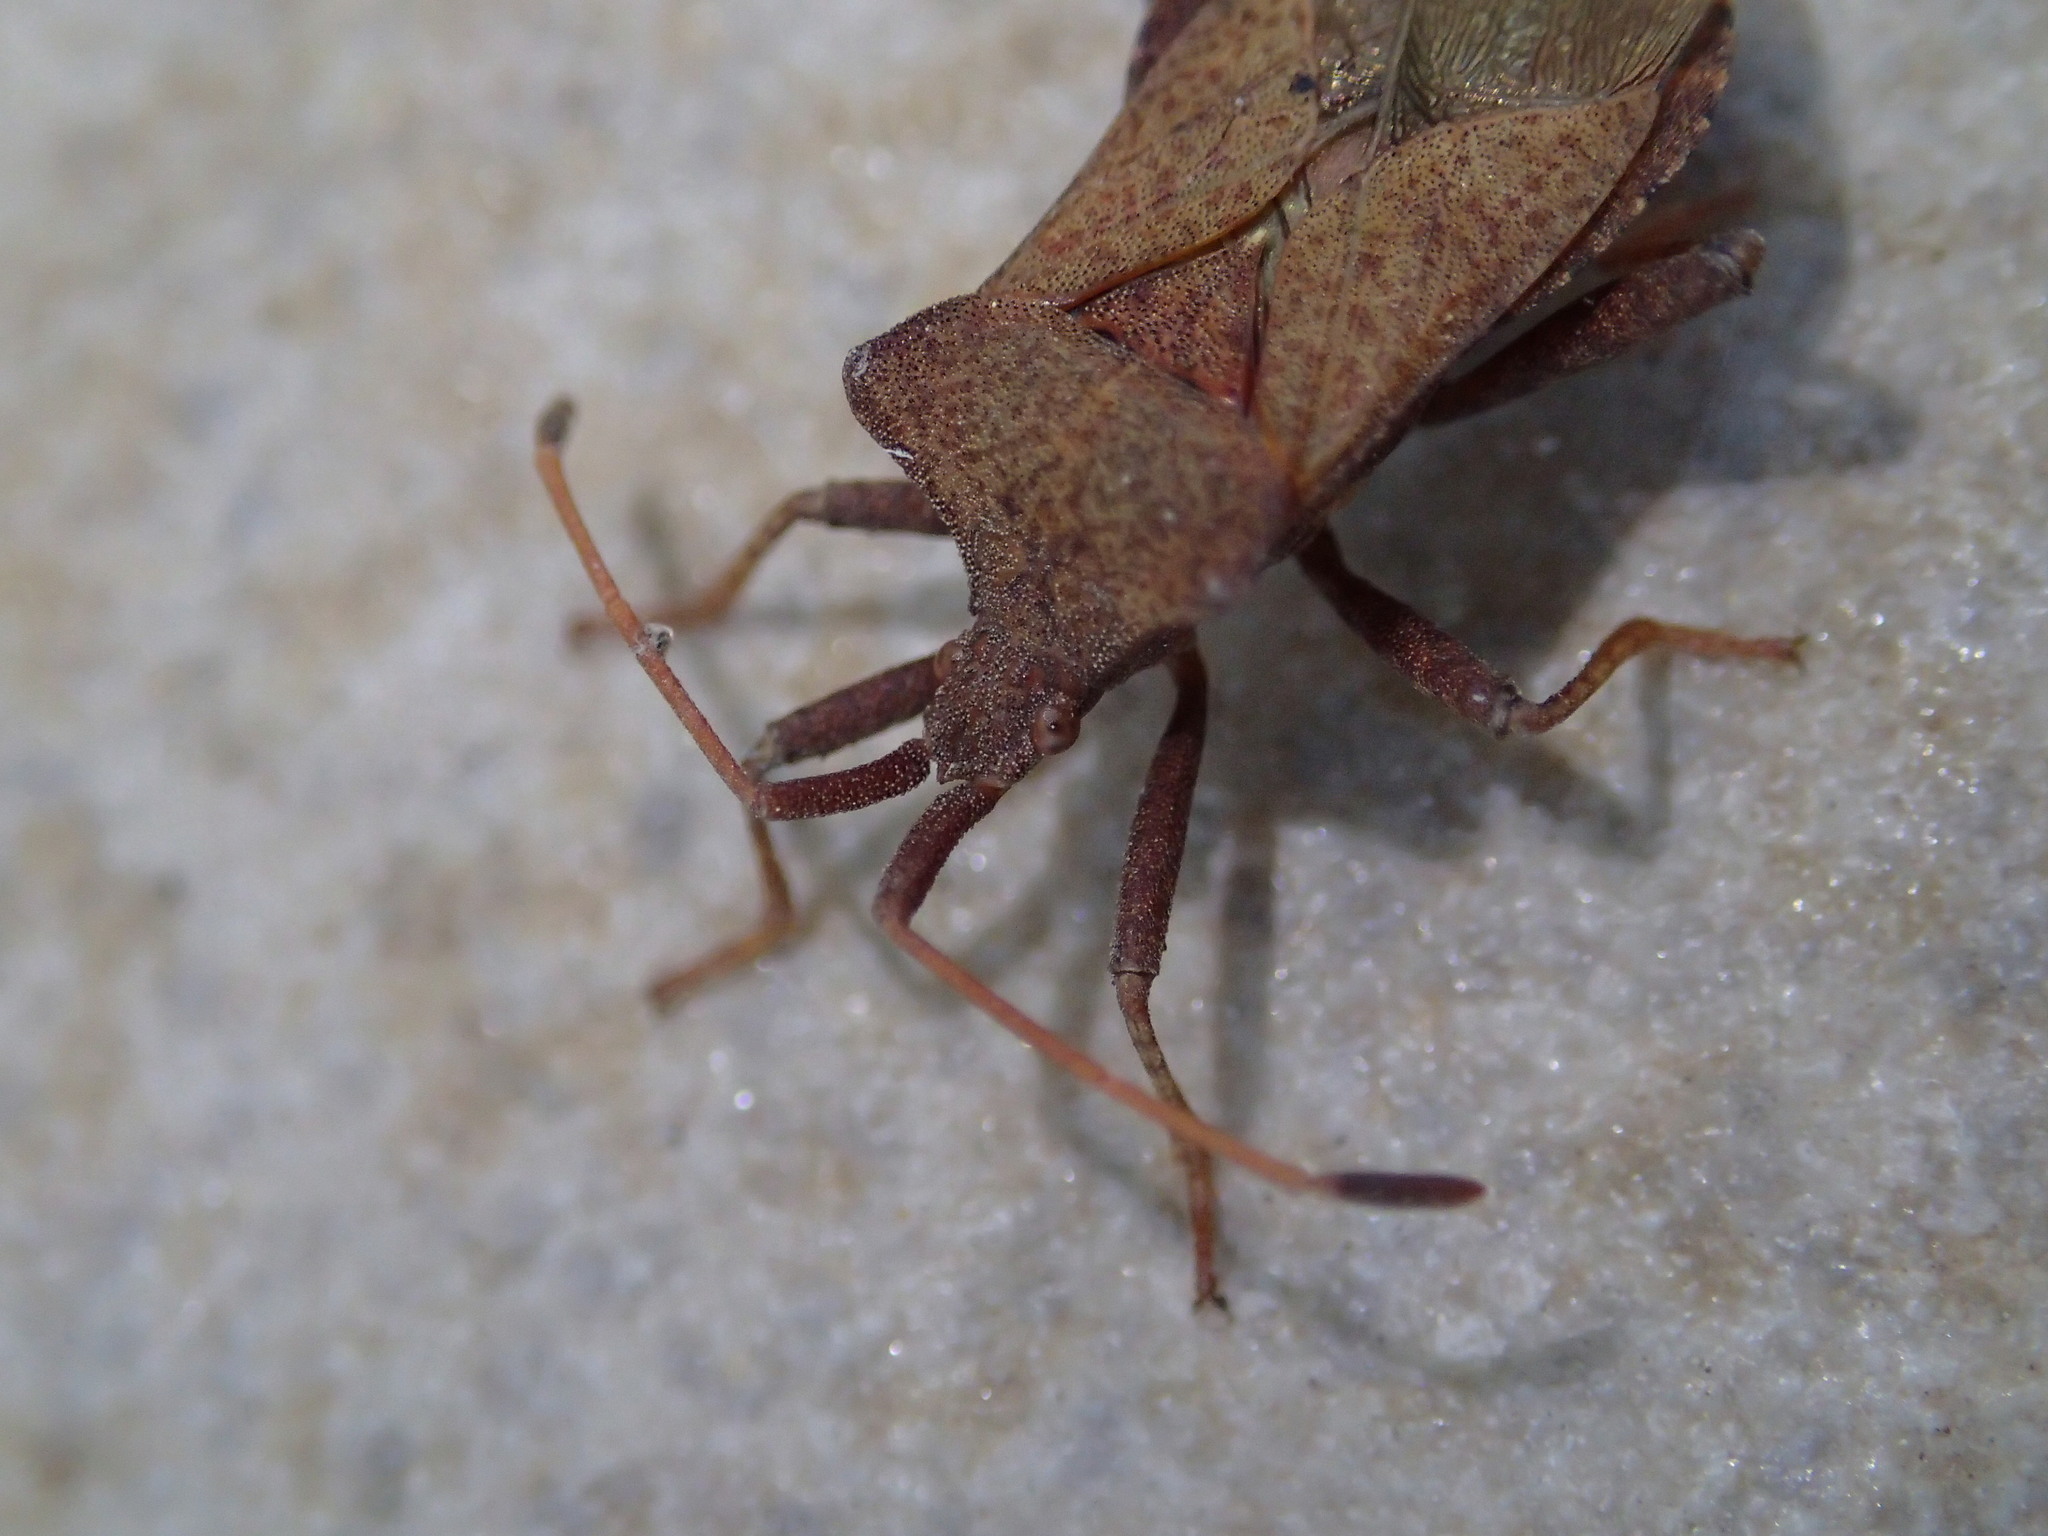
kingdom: Animalia
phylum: Arthropoda
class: Insecta
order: Hemiptera
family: Coreidae
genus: Coreus
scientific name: Coreus marginatus
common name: Dock bug
